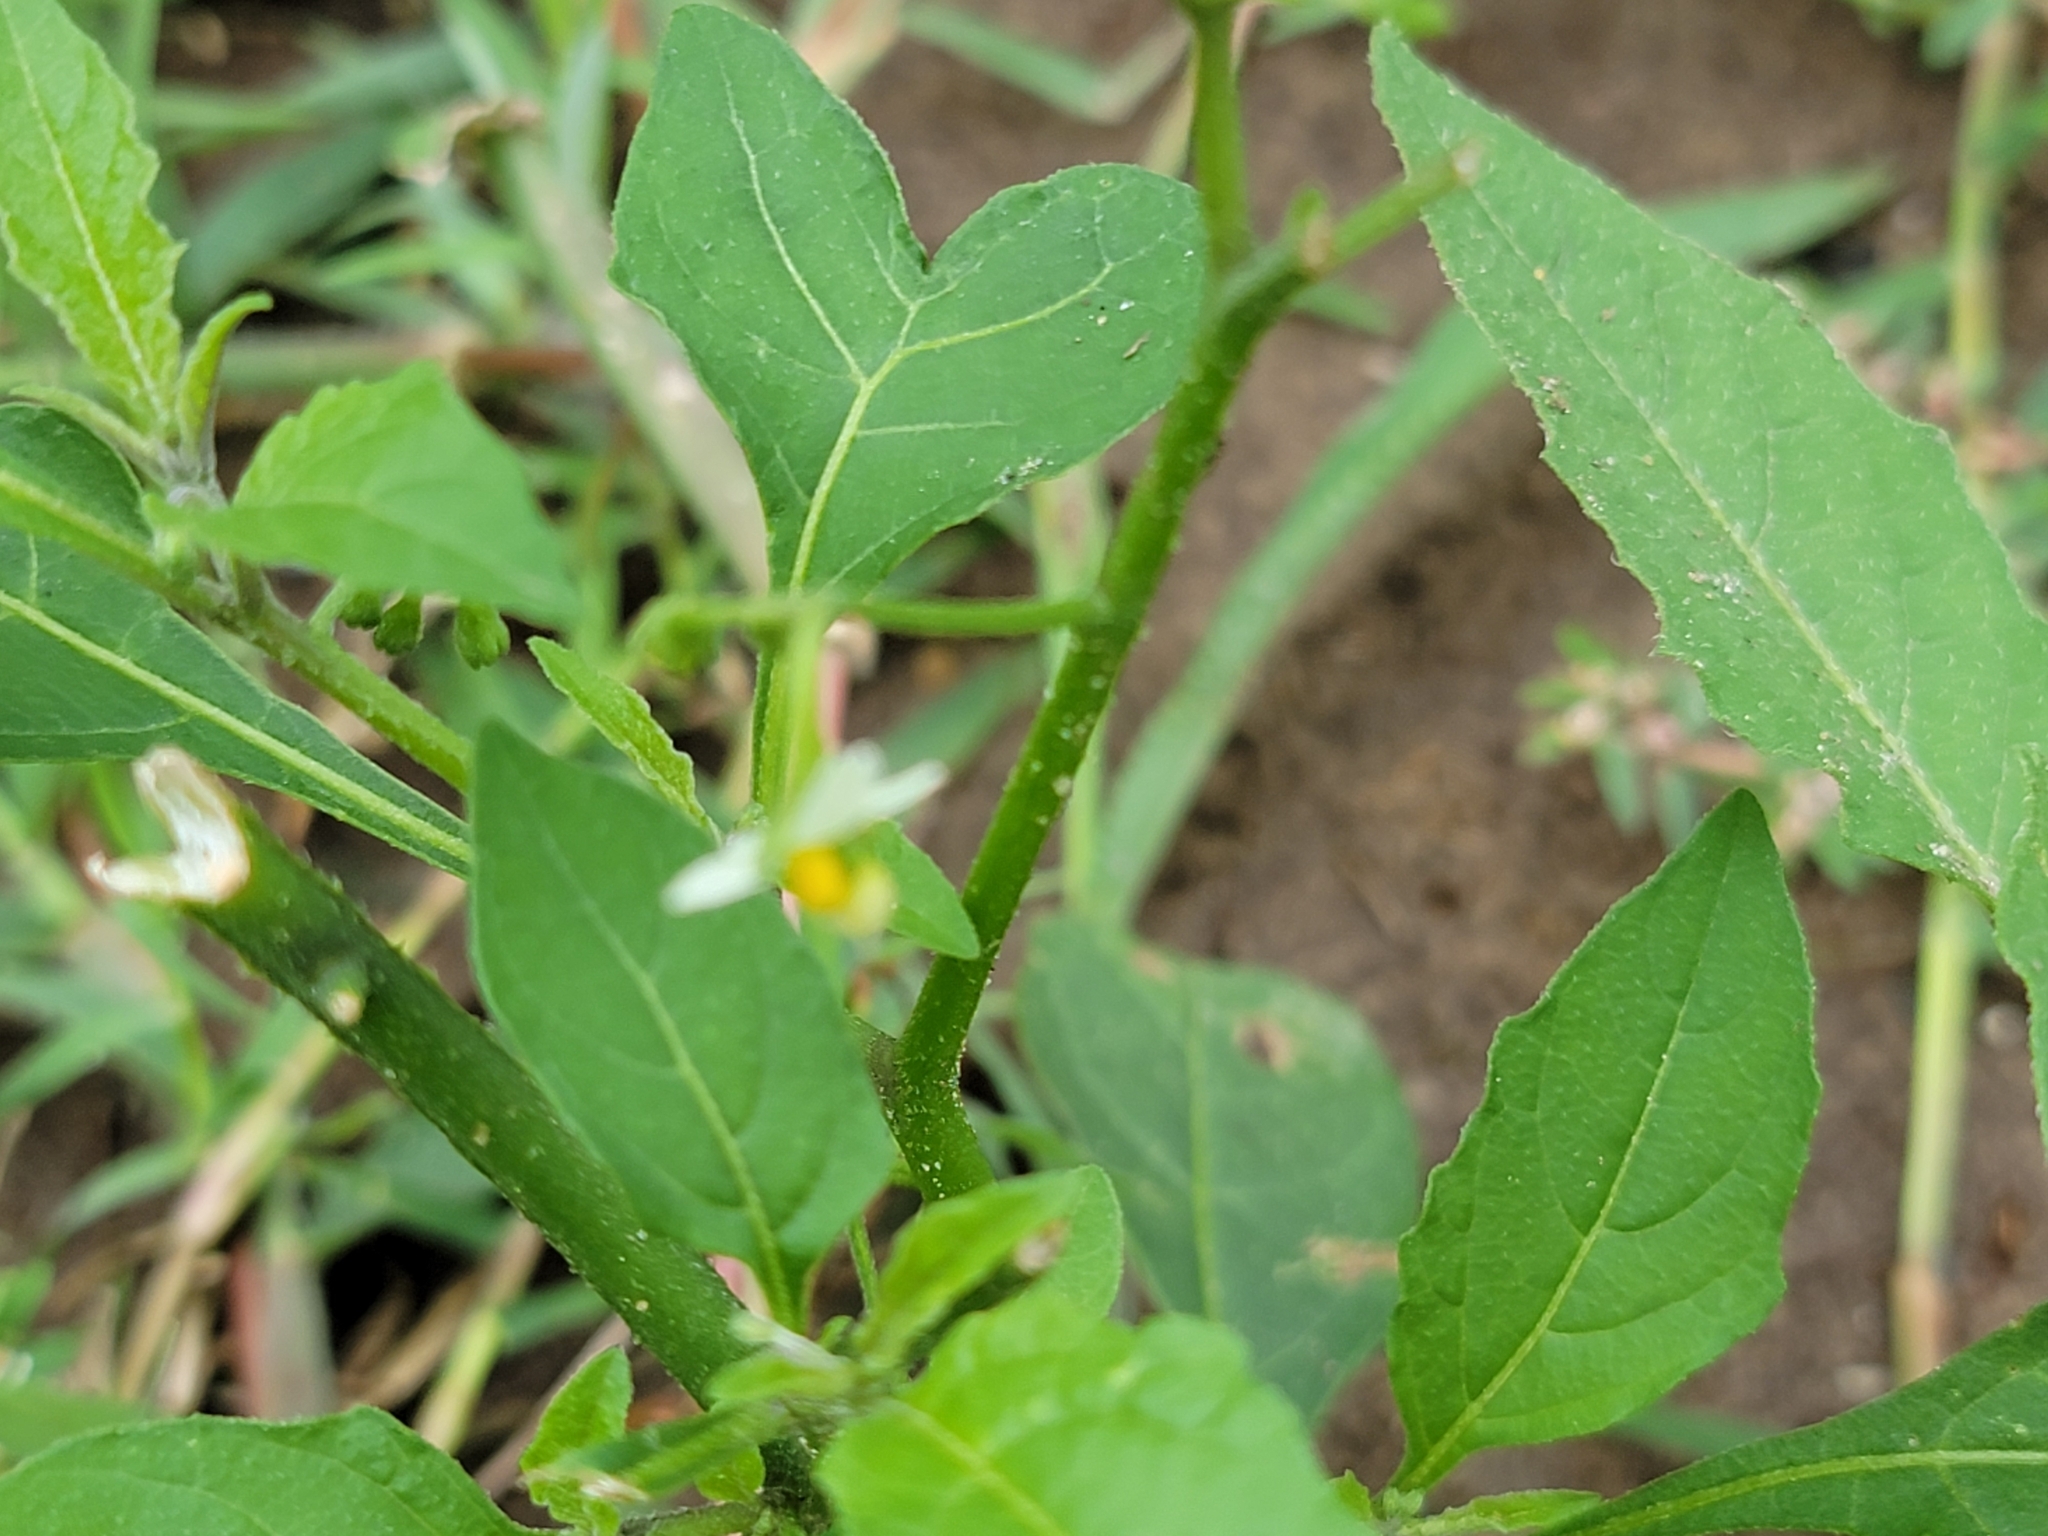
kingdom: Plantae
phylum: Tracheophyta
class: Magnoliopsida
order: Solanales
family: Solanaceae
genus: Solanum
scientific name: Solanum emulans
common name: Eastern black nightshade
